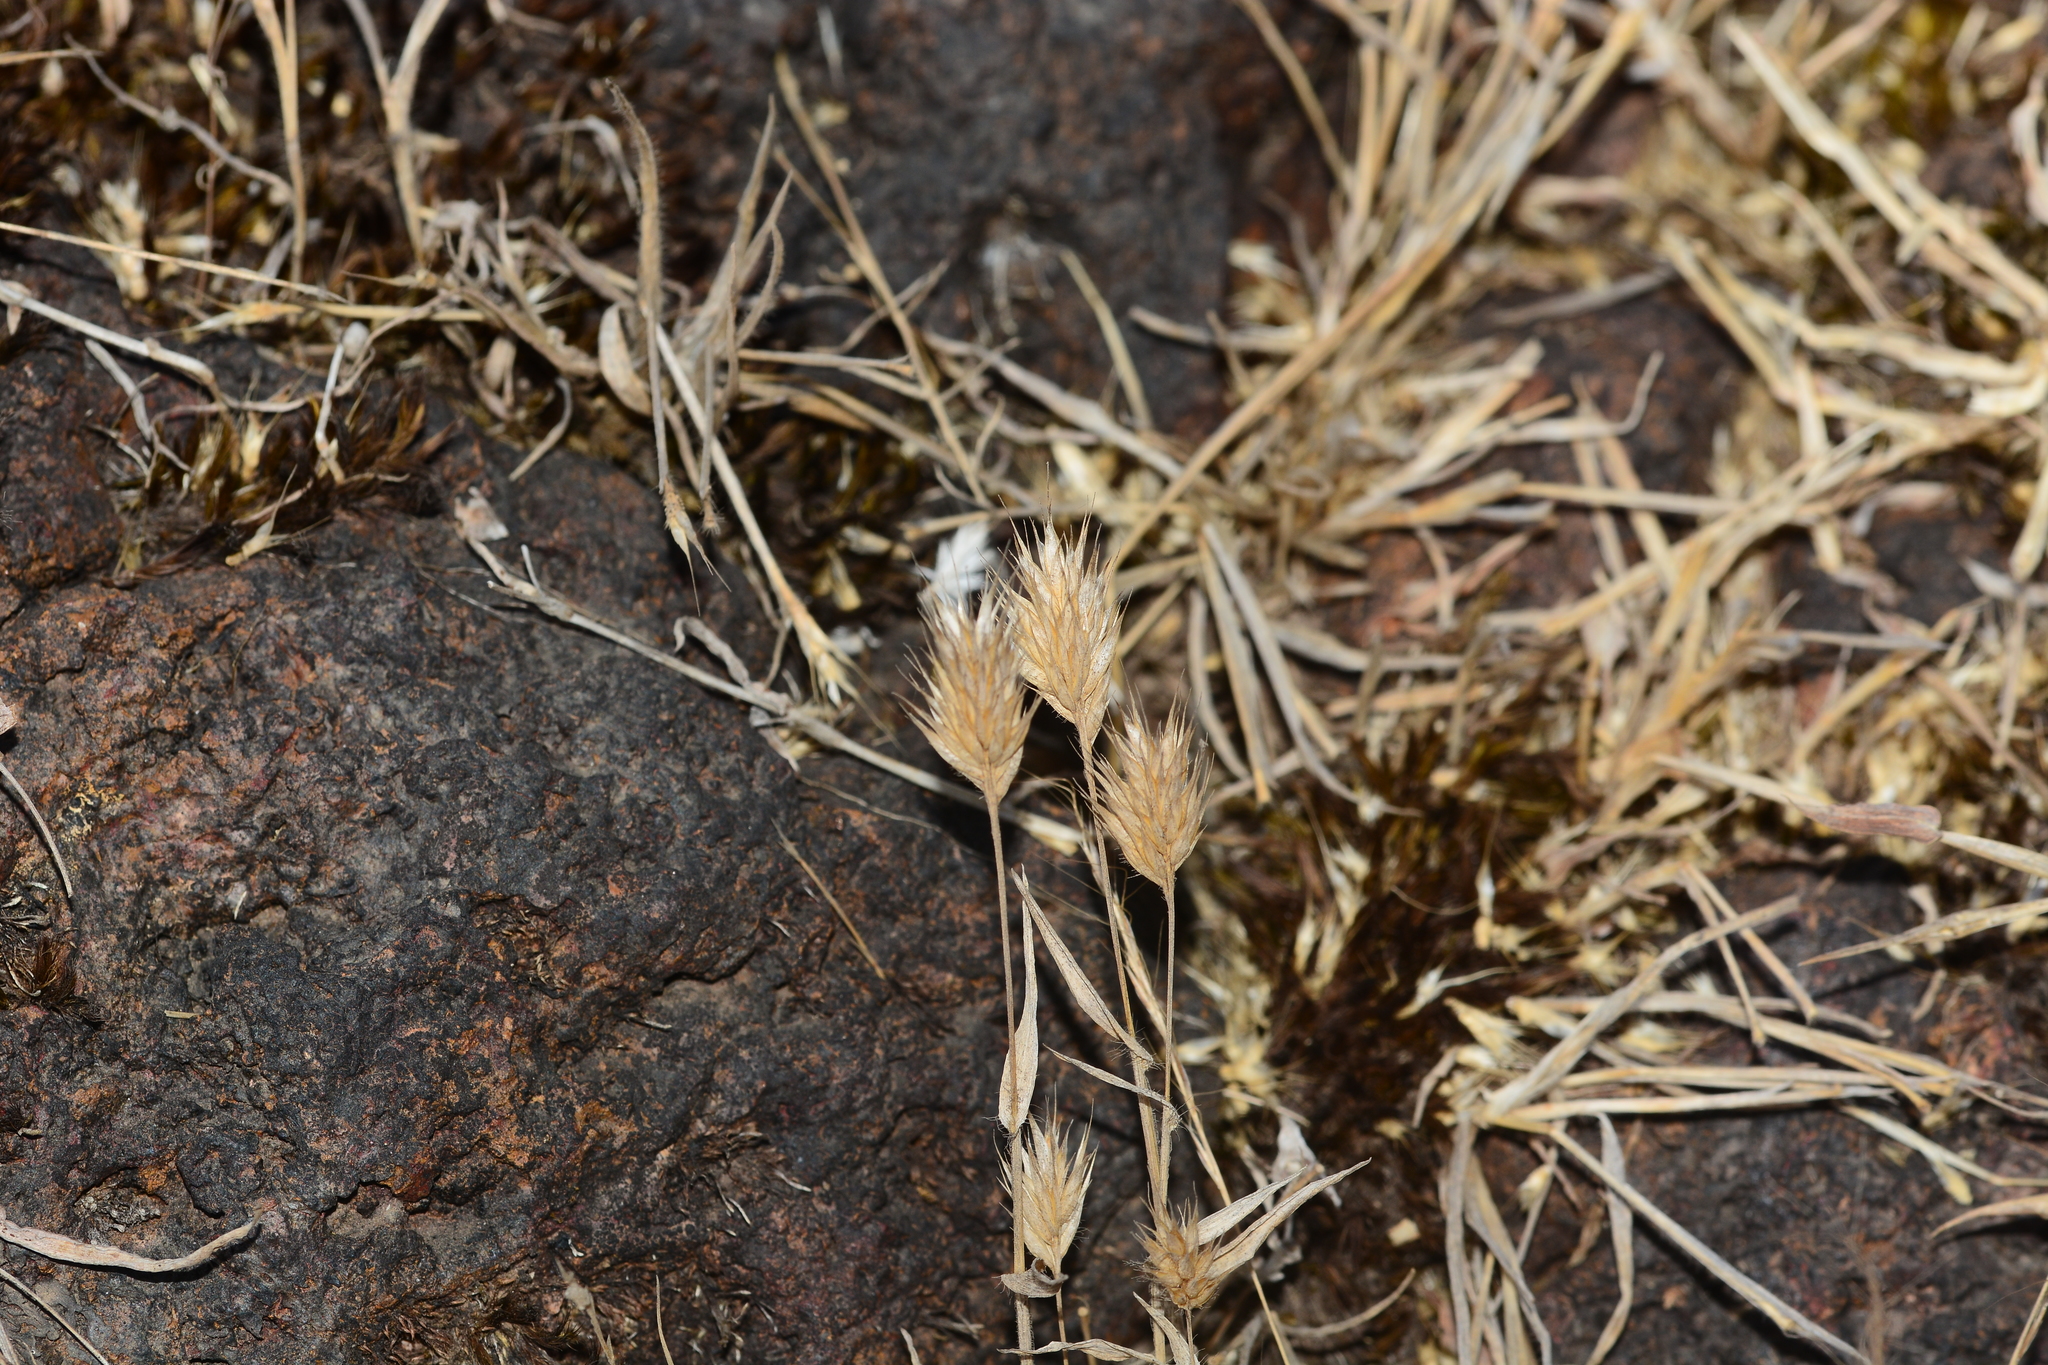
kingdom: Plantae
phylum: Tracheophyta
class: Liliopsida
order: Poales
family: Poaceae
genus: Jansenella
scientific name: Jansenella griffithiana
